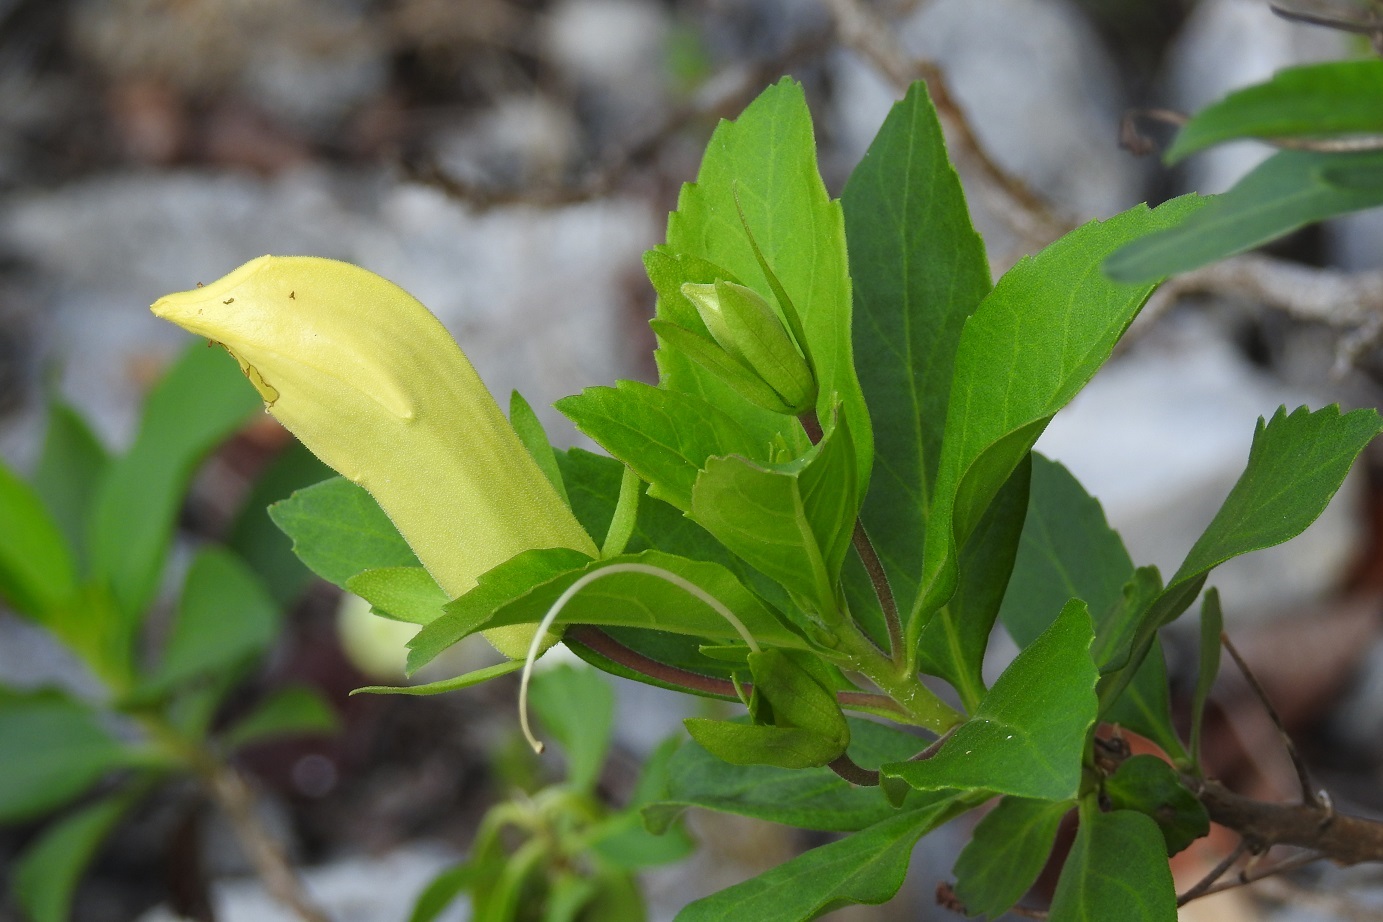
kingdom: Plantae
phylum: Tracheophyta
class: Magnoliopsida
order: Lamiales
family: Scrophulariaceae
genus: Eremogeton
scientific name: Eremogeton grandiflorus
